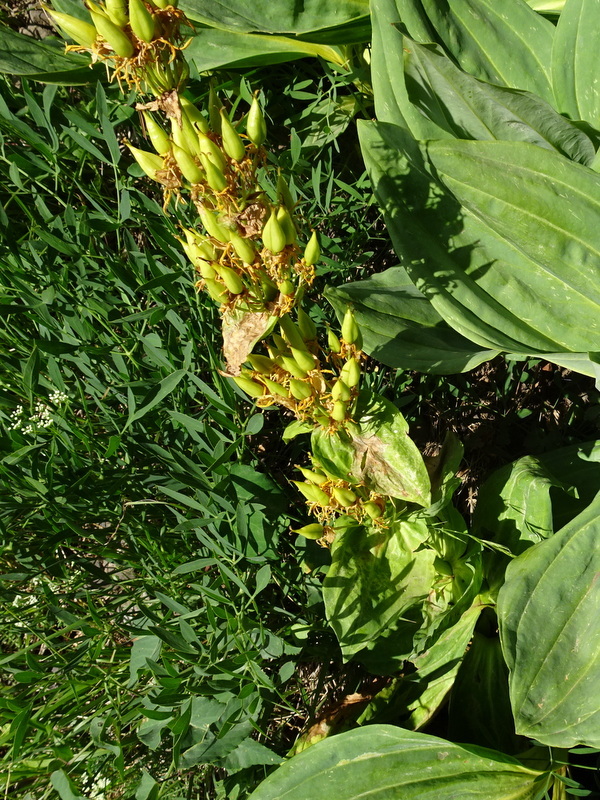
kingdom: Plantae
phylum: Tracheophyta
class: Magnoliopsida
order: Gentianales
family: Gentianaceae
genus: Gentiana
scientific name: Gentiana lutea
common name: Great yellow gentian
